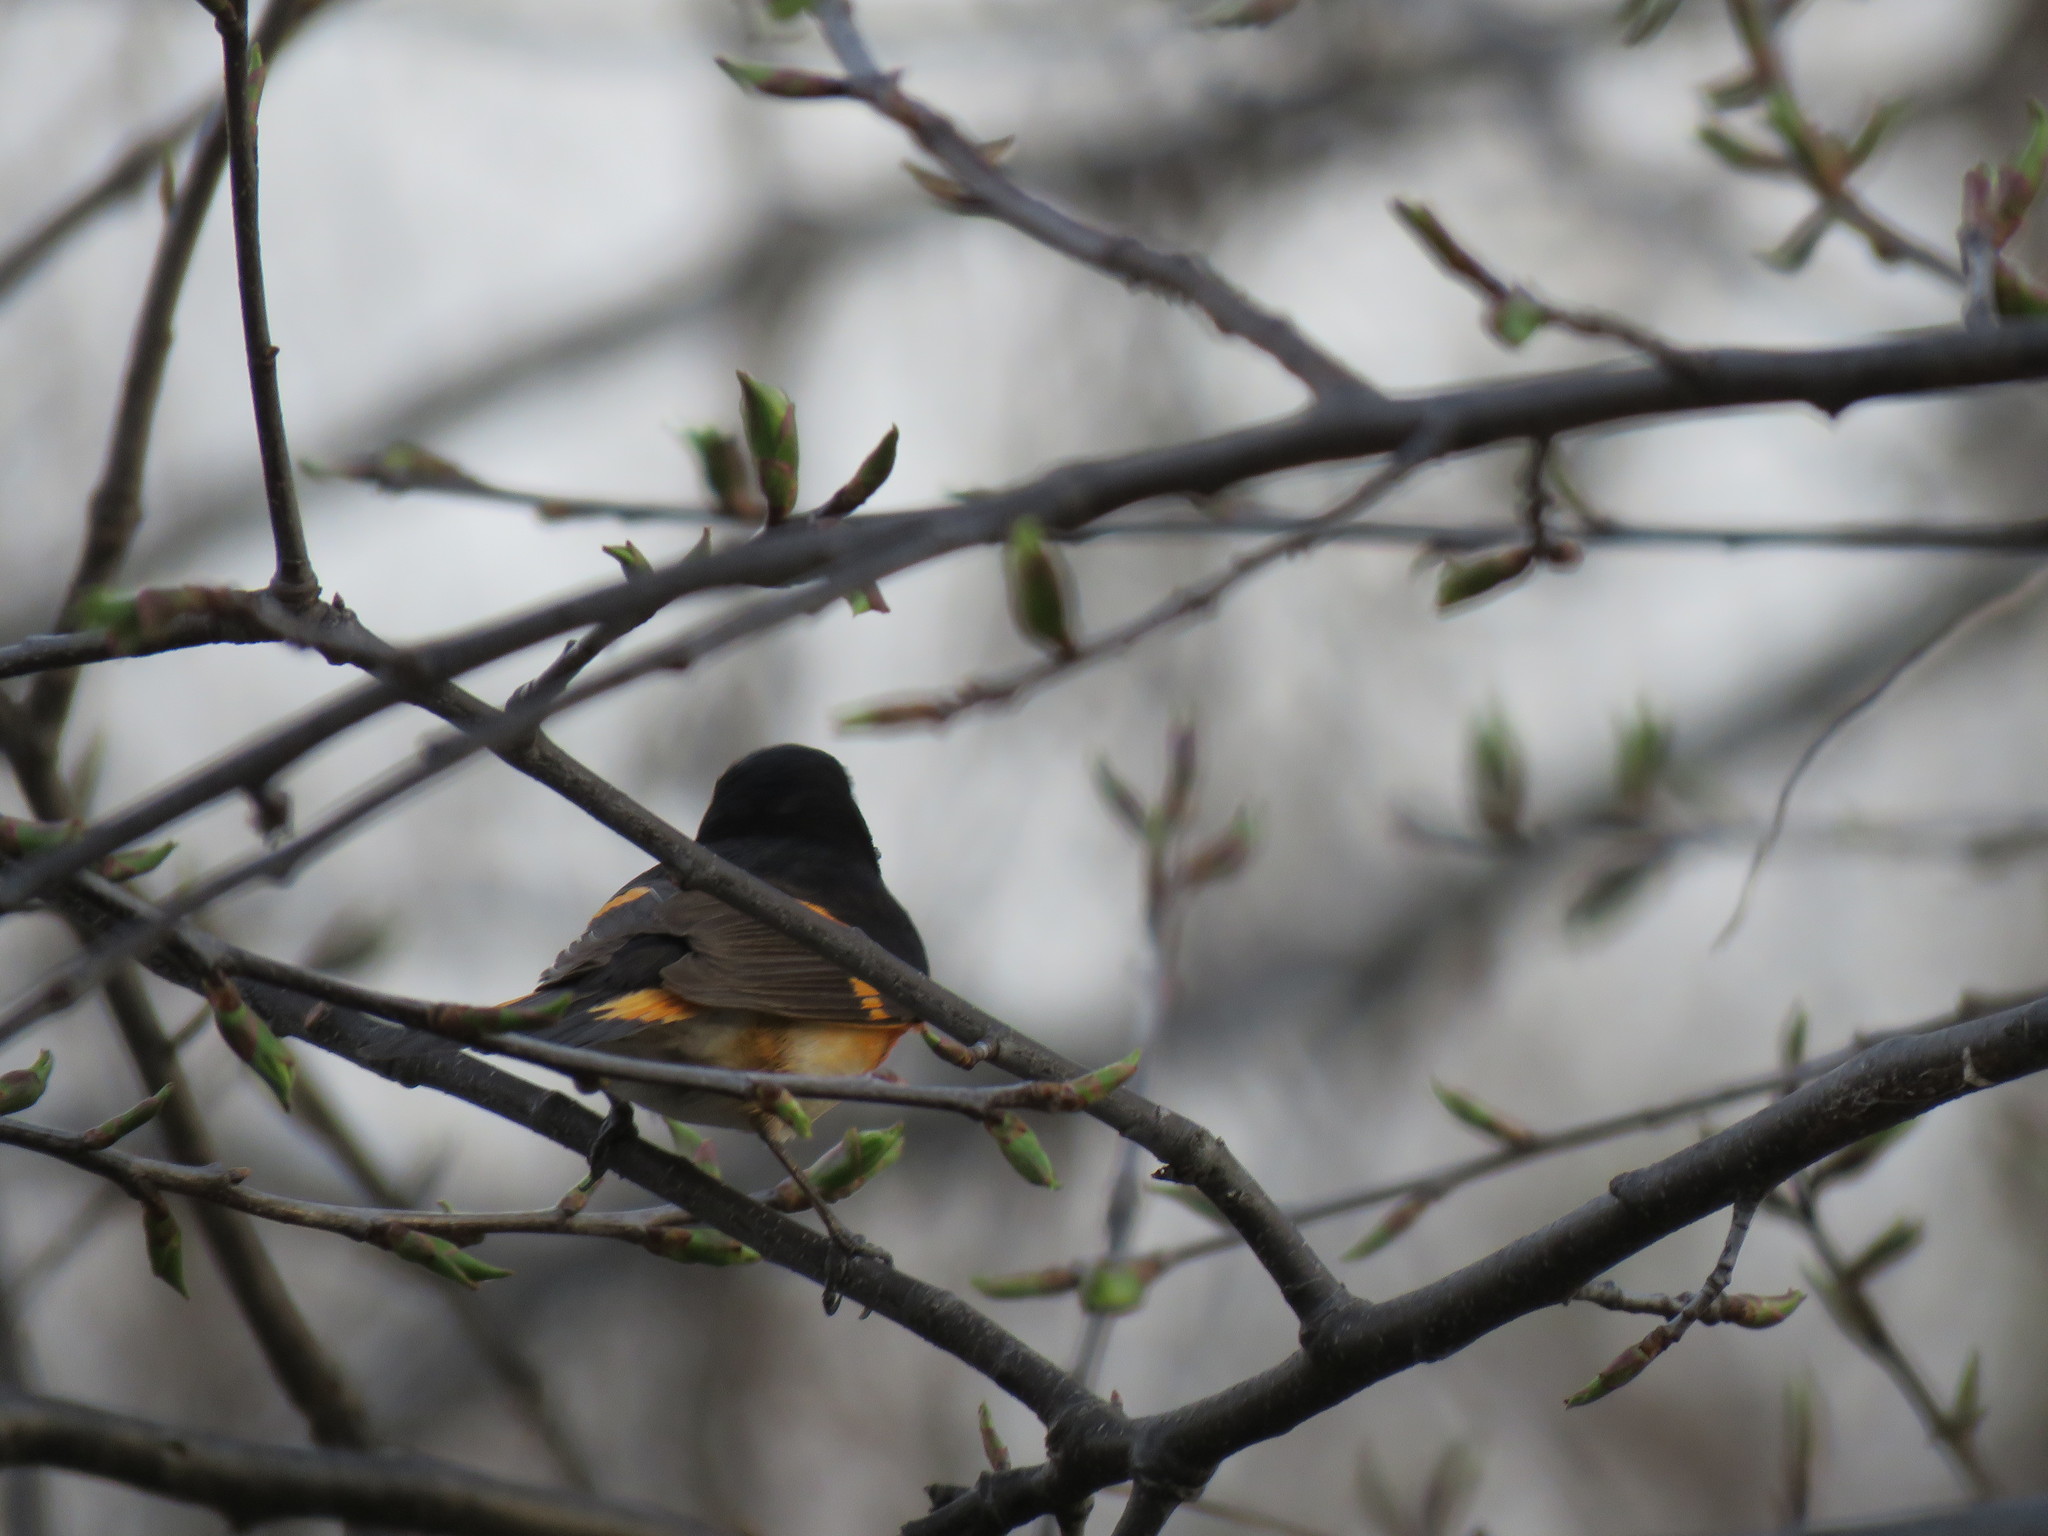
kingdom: Animalia
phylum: Chordata
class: Aves
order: Passeriformes
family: Parulidae
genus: Setophaga
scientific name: Setophaga ruticilla
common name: American redstart
